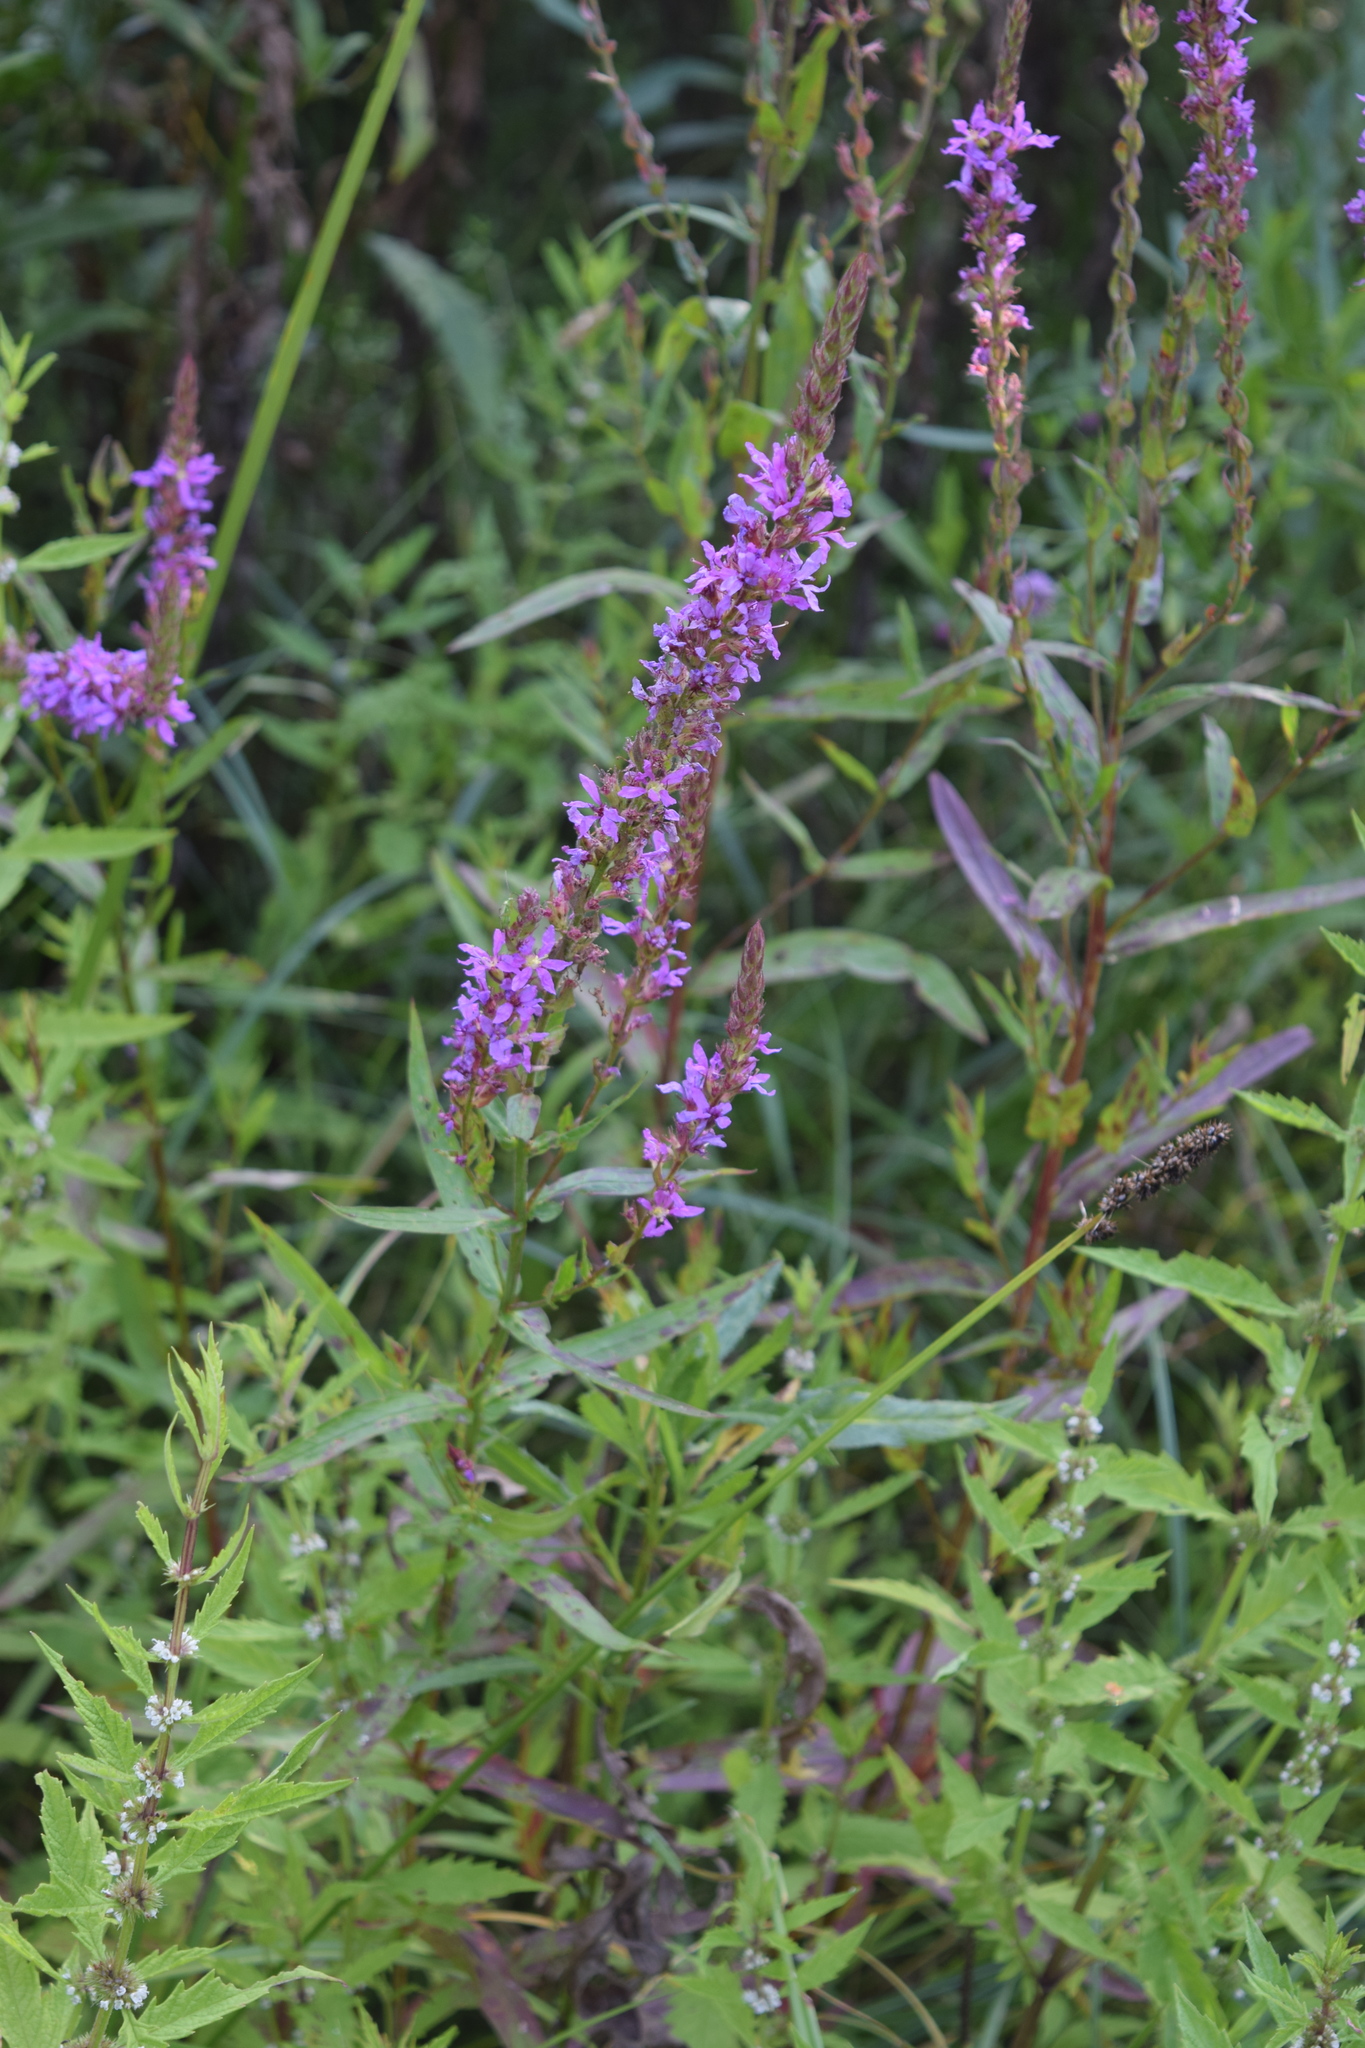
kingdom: Plantae
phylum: Tracheophyta
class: Magnoliopsida
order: Myrtales
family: Lythraceae
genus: Lythrum
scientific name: Lythrum salicaria
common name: Purple loosestrife
